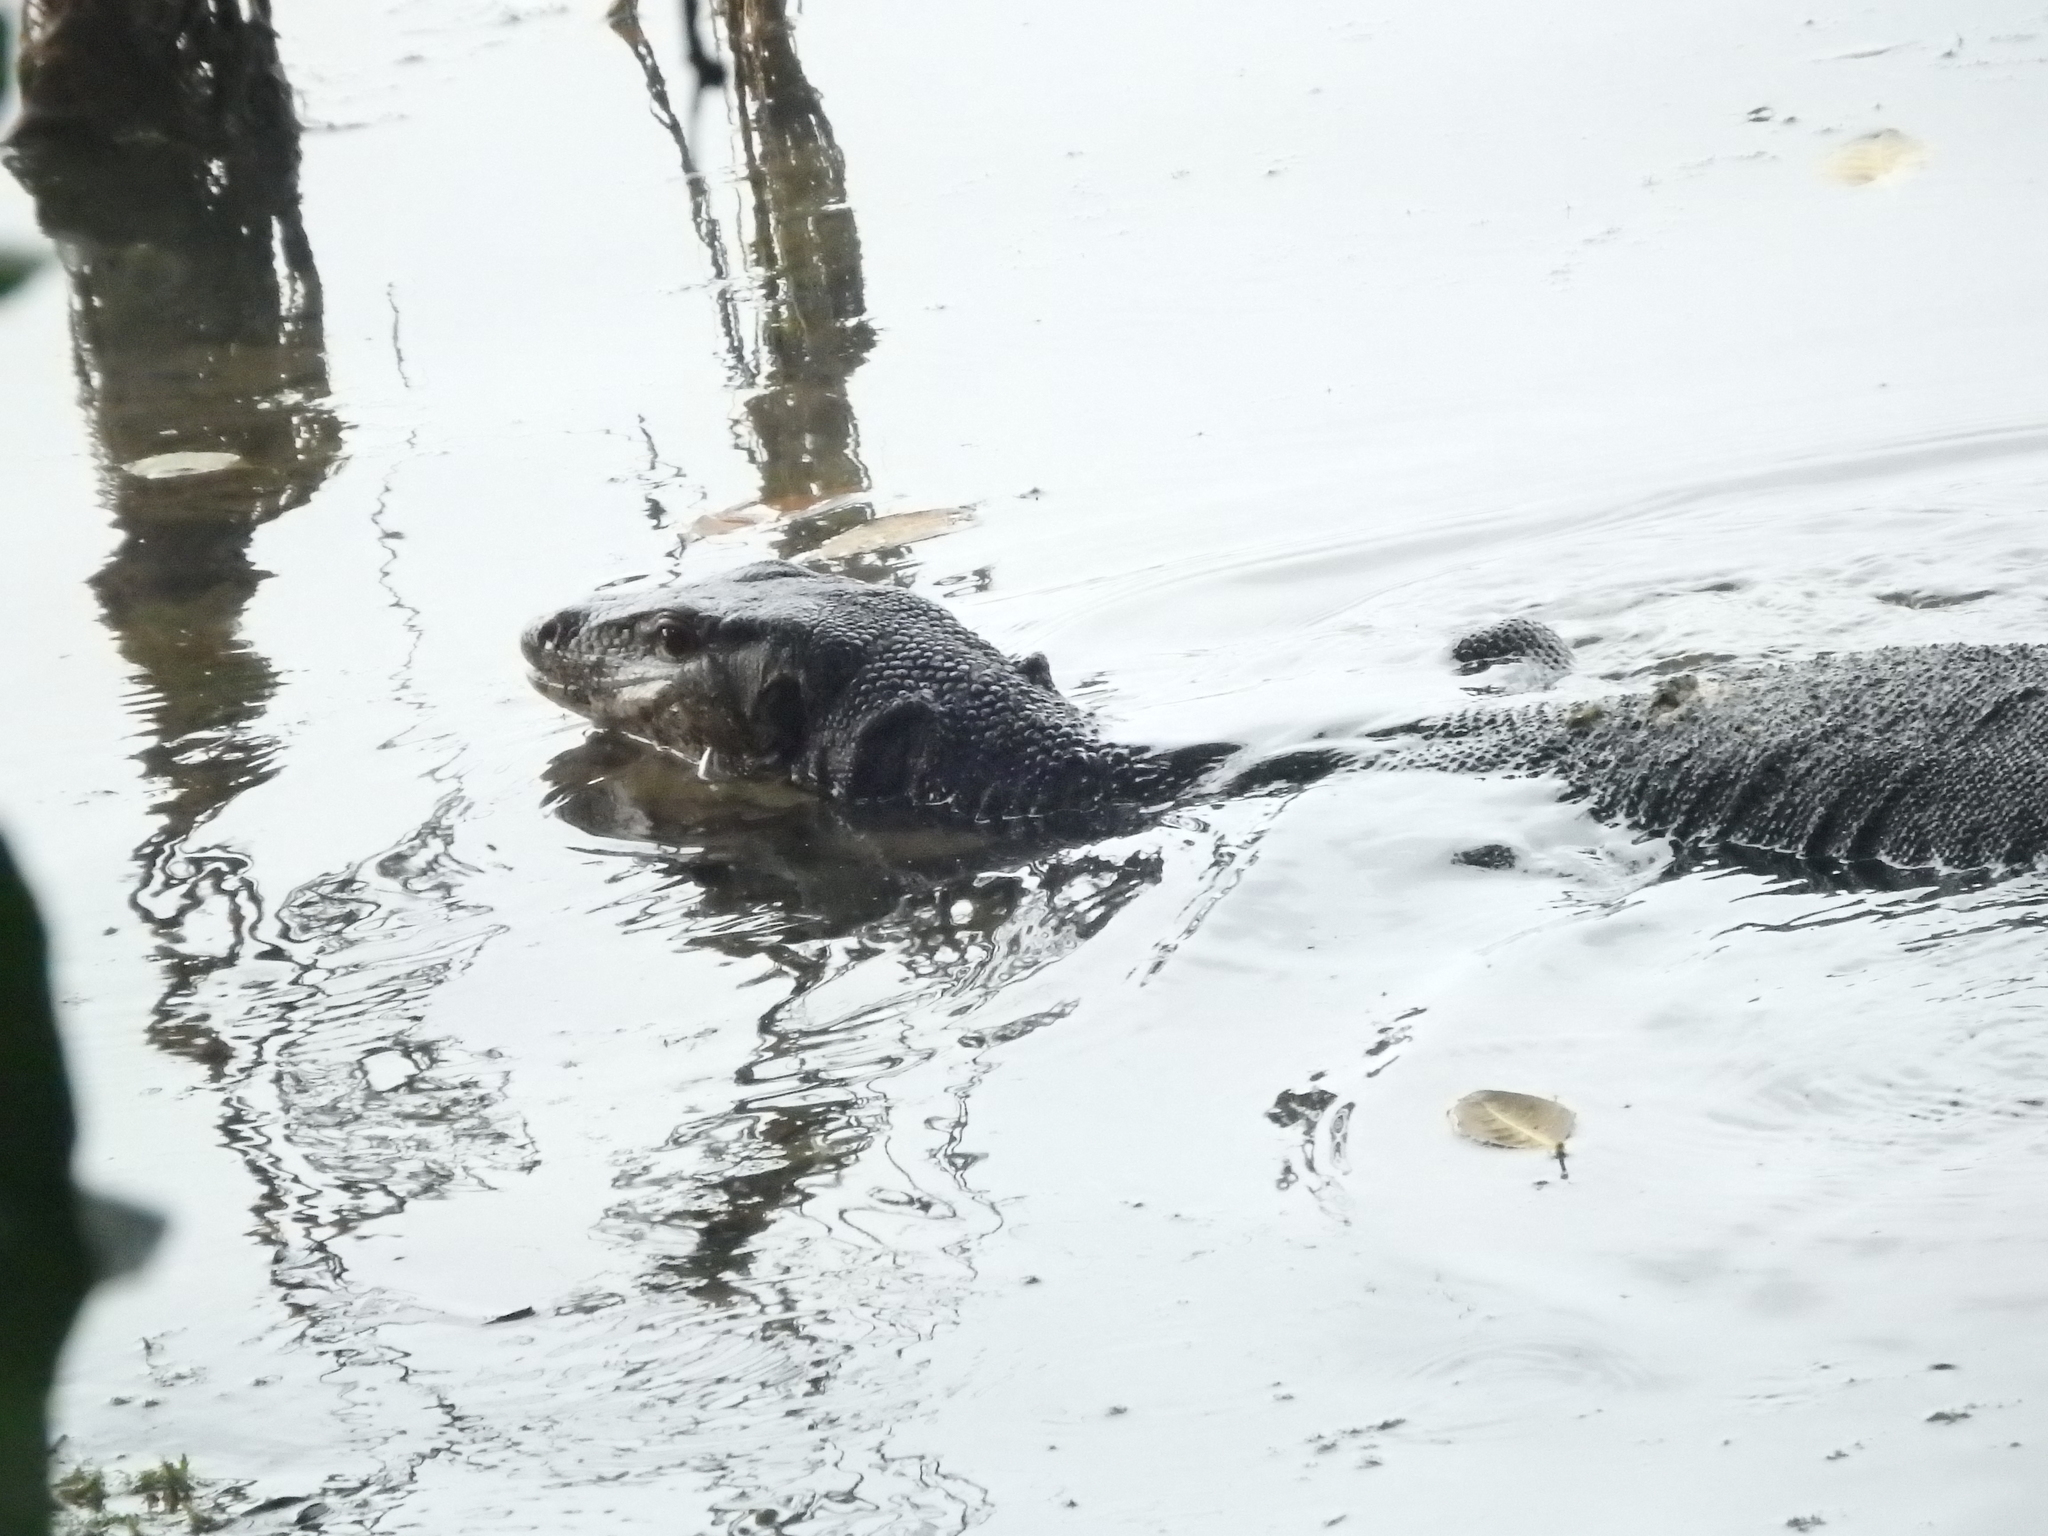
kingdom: Animalia
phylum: Chordata
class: Squamata
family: Varanidae
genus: Varanus
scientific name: Varanus salvator
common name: Common water monitor
